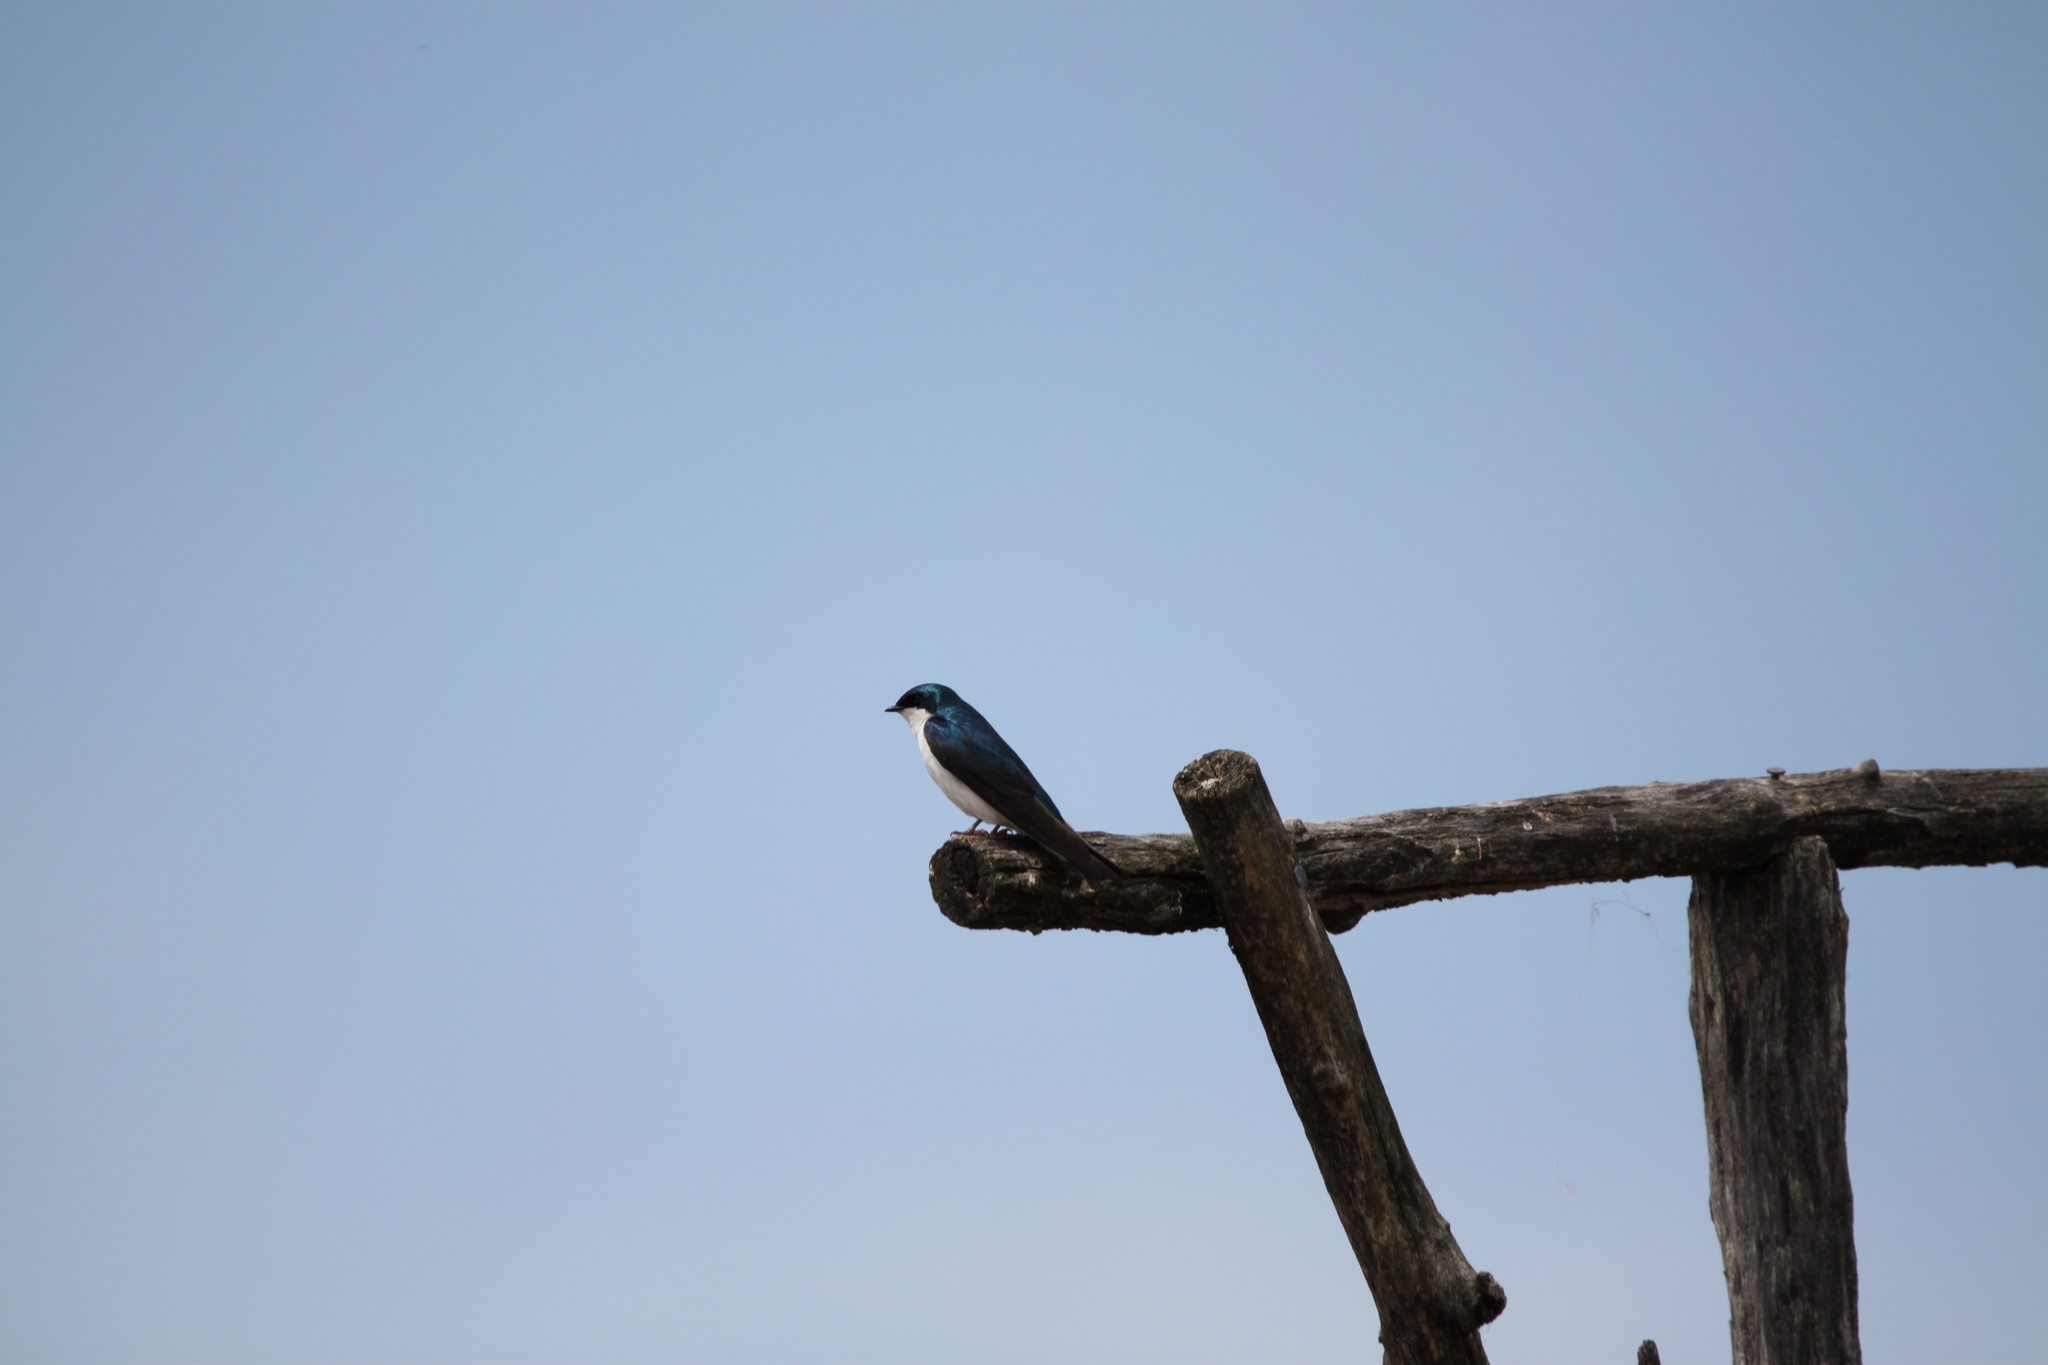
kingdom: Animalia
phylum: Chordata
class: Aves
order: Passeriformes
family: Hirundinidae
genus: Tachycineta
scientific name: Tachycineta bicolor
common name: Tree swallow
